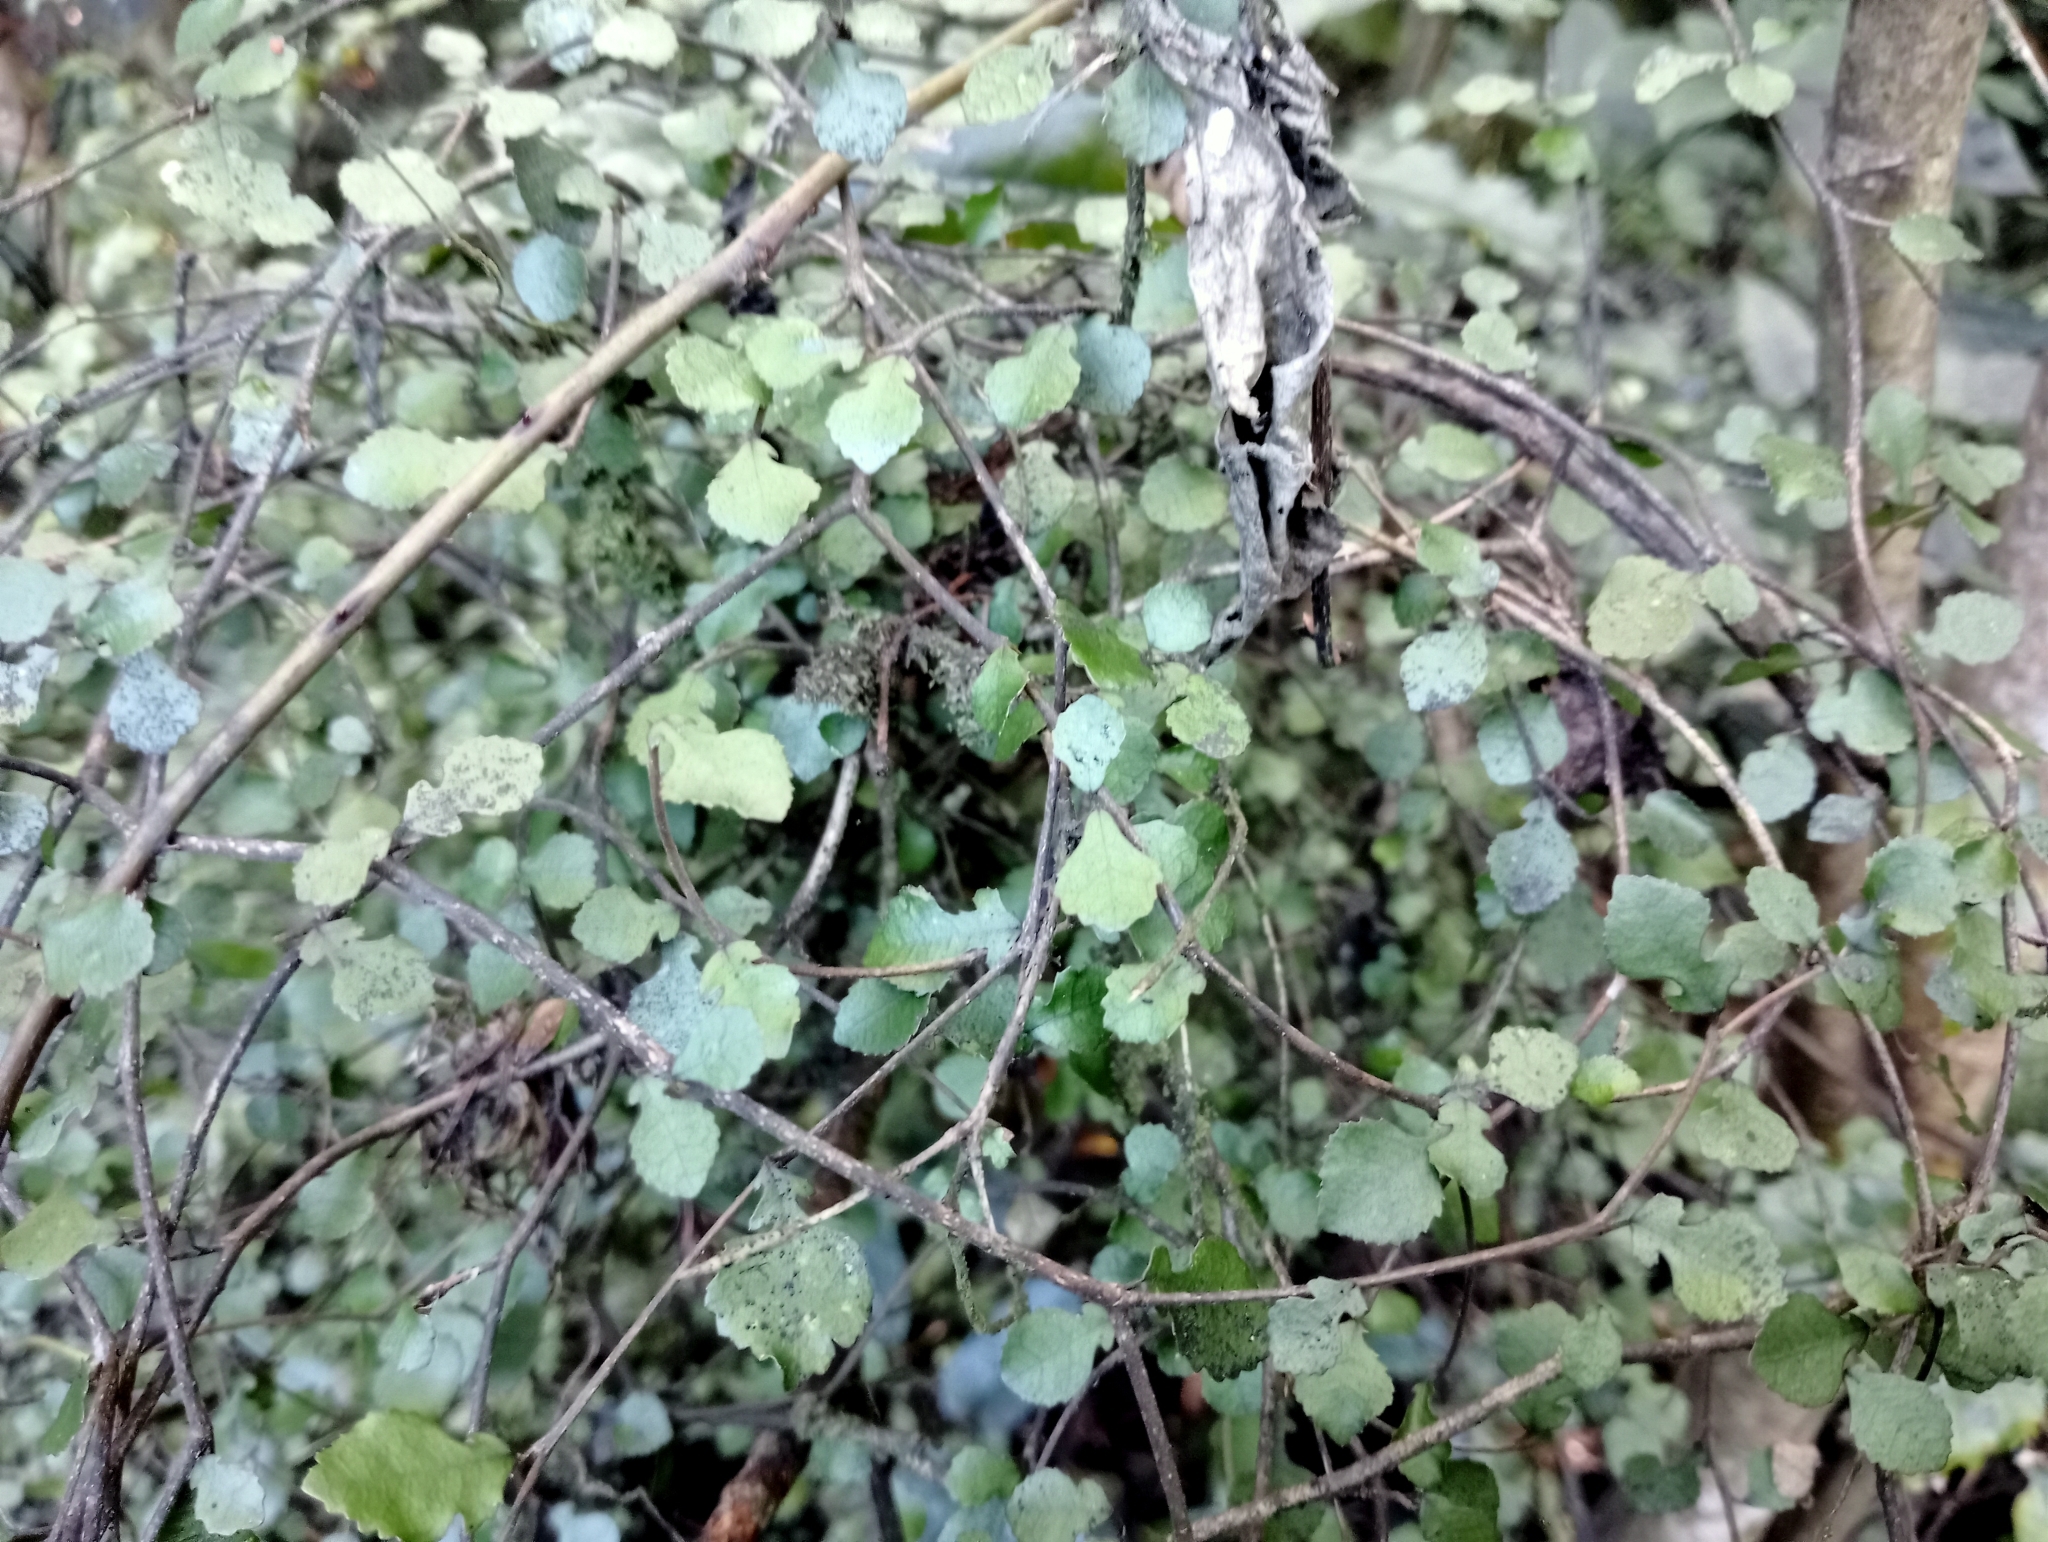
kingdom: Plantae
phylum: Tracheophyta
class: Magnoliopsida
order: Rosales
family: Moraceae
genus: Paratrophis
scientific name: Paratrophis microphylla
